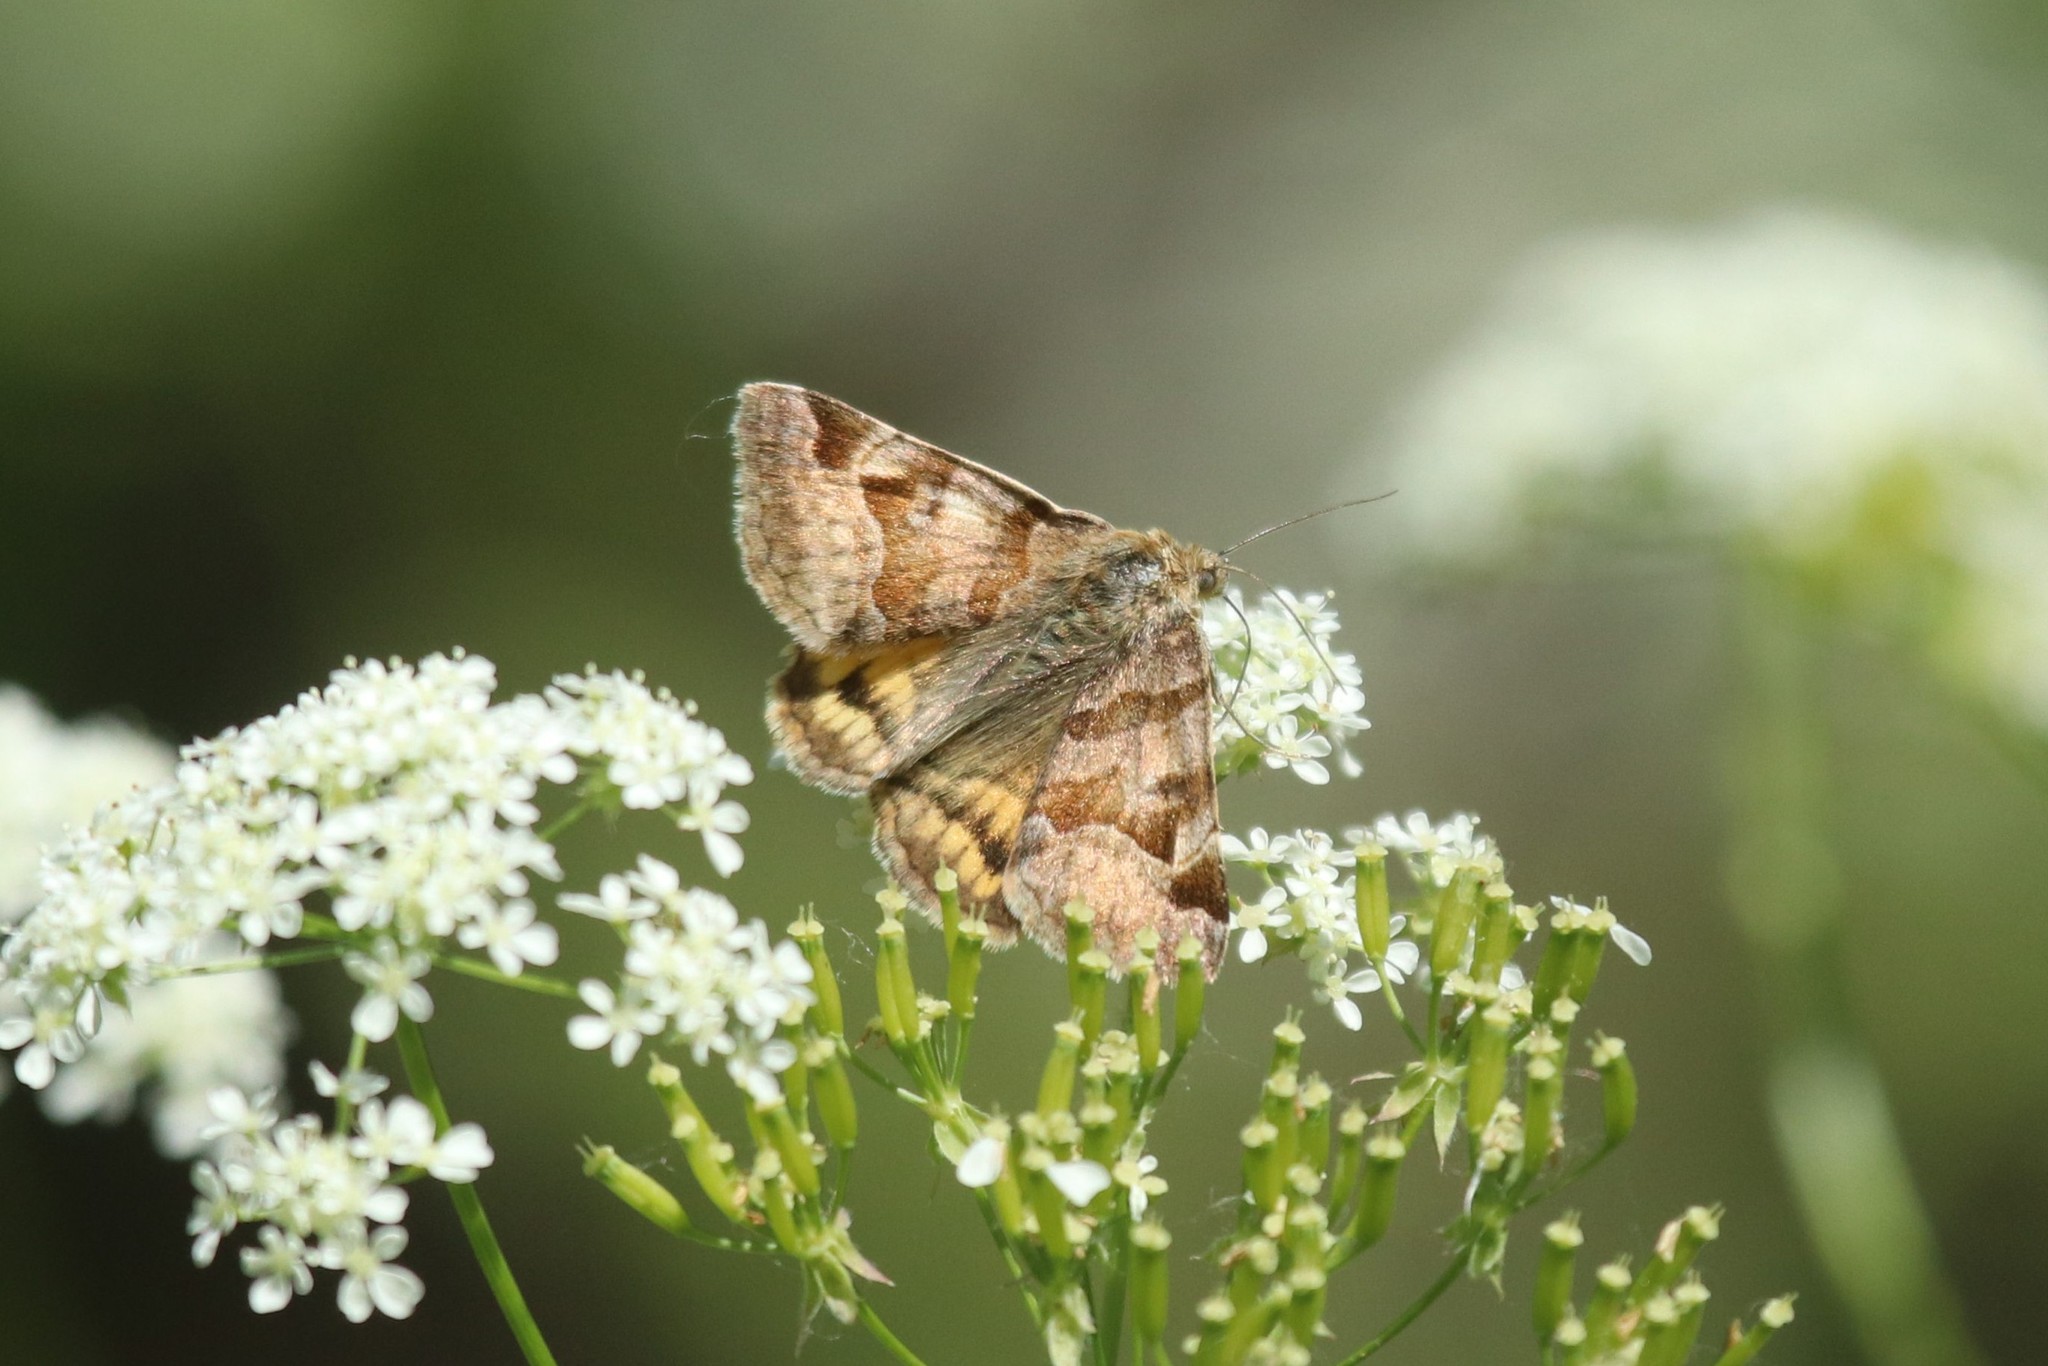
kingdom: Animalia
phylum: Arthropoda
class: Insecta
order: Lepidoptera
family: Erebidae
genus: Euclidia
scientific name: Euclidia glyphica
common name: Burnet companion
